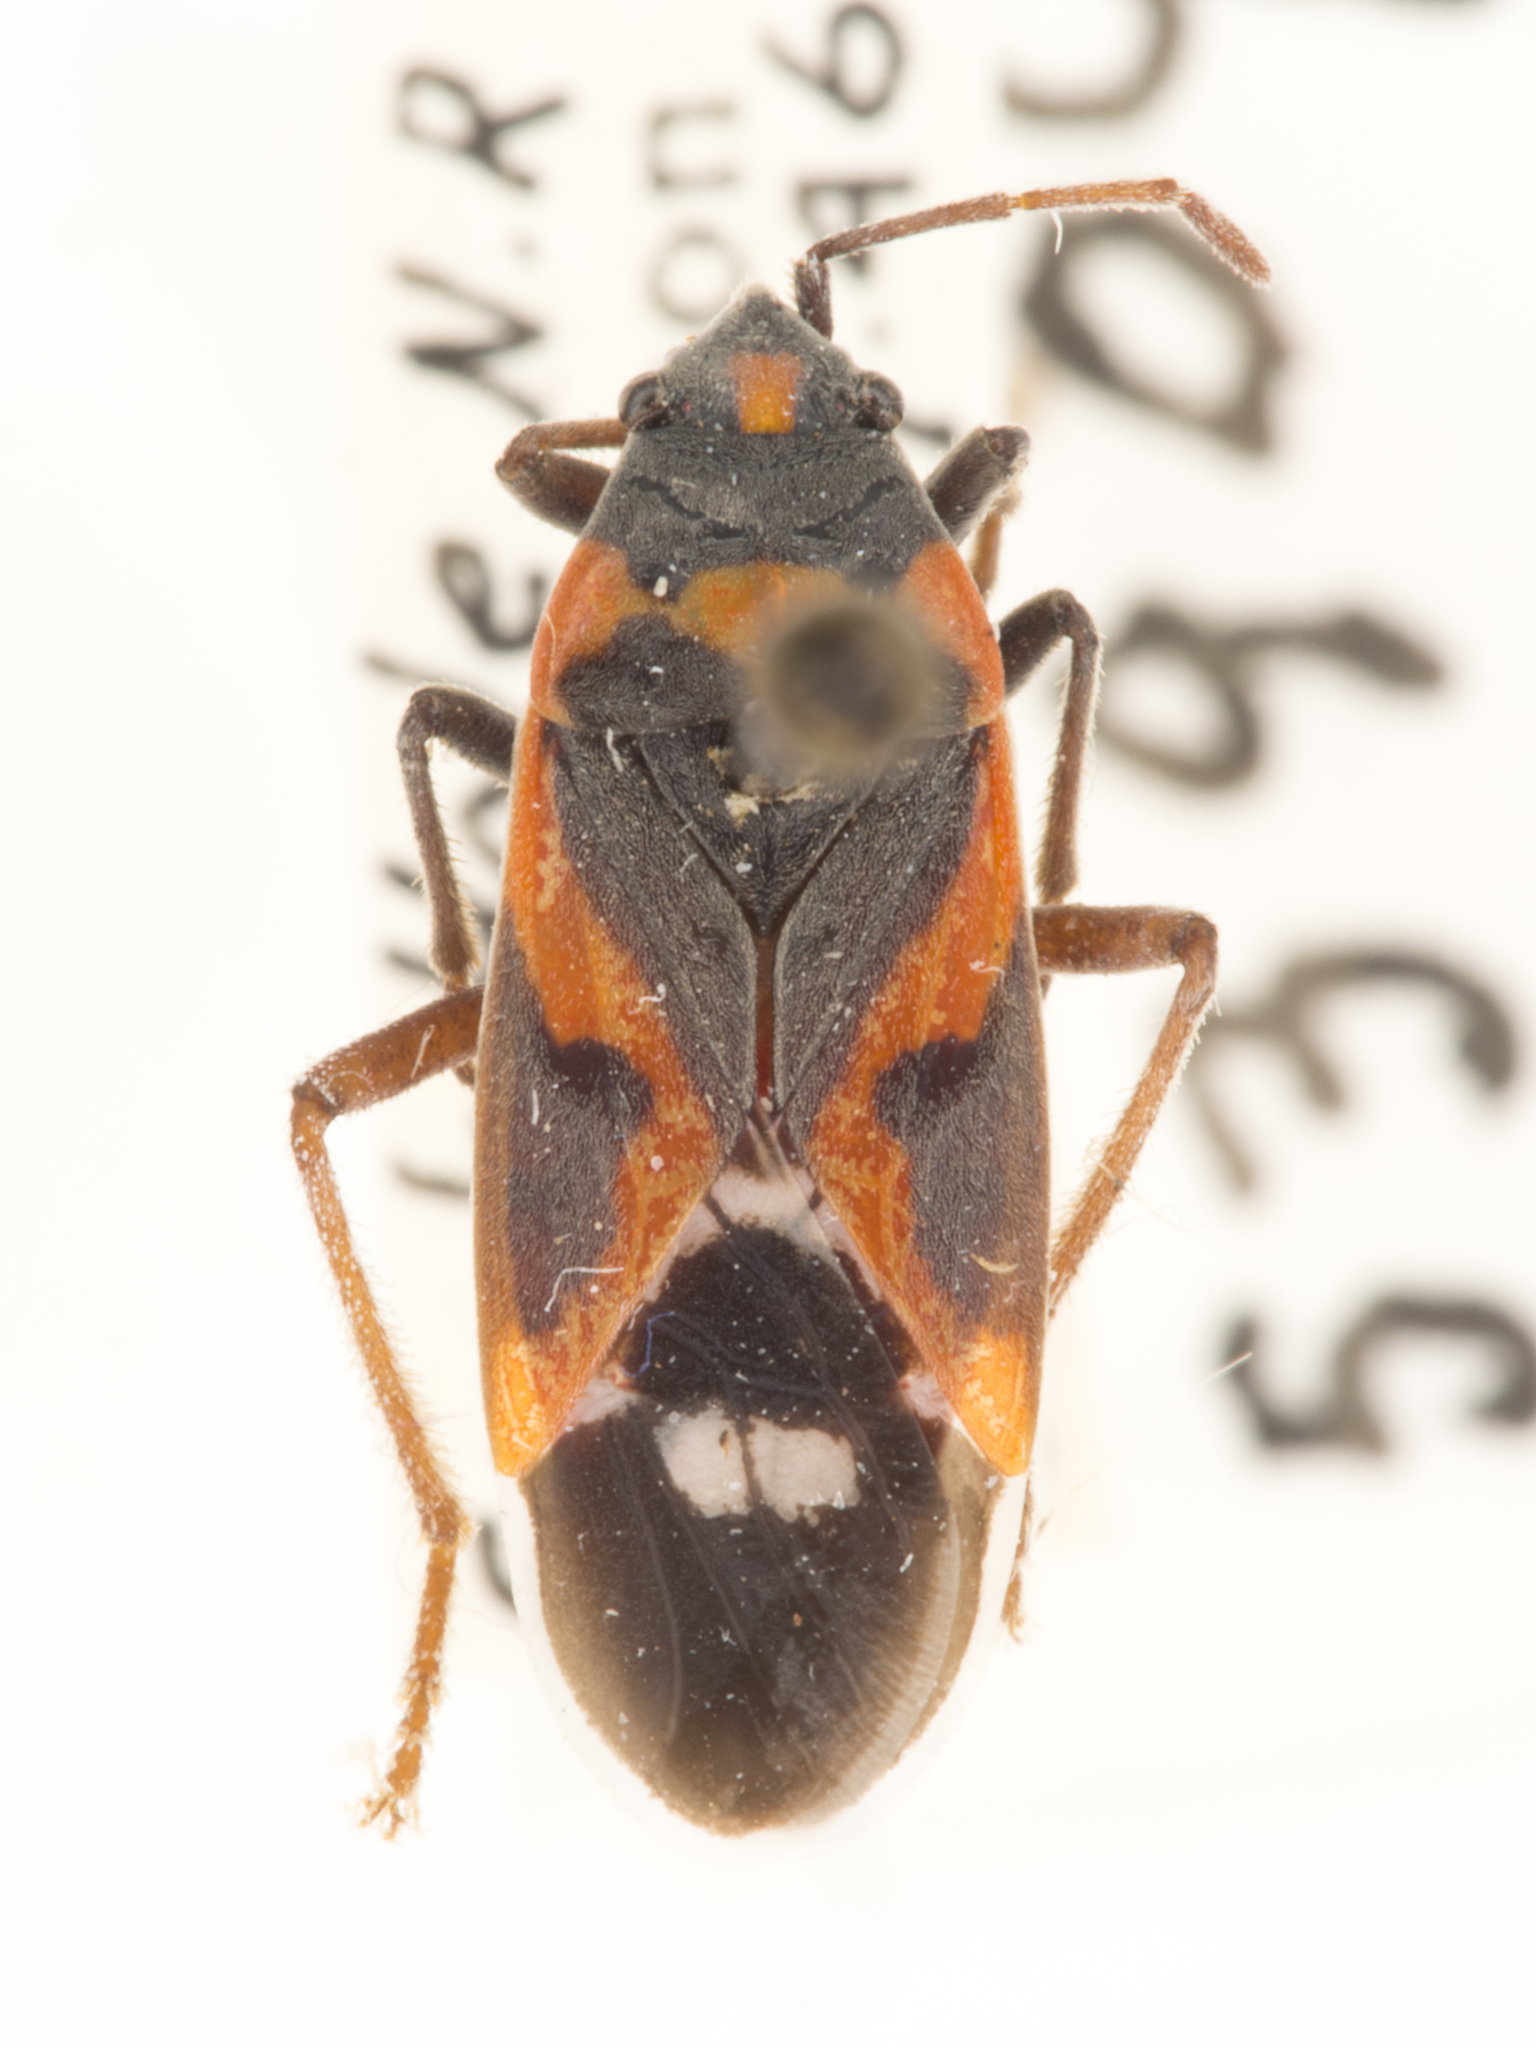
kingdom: Animalia
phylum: Arthropoda
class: Insecta
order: Hemiptera
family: Lygaeidae
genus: Lygaeus
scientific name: Lygaeus kalmii
